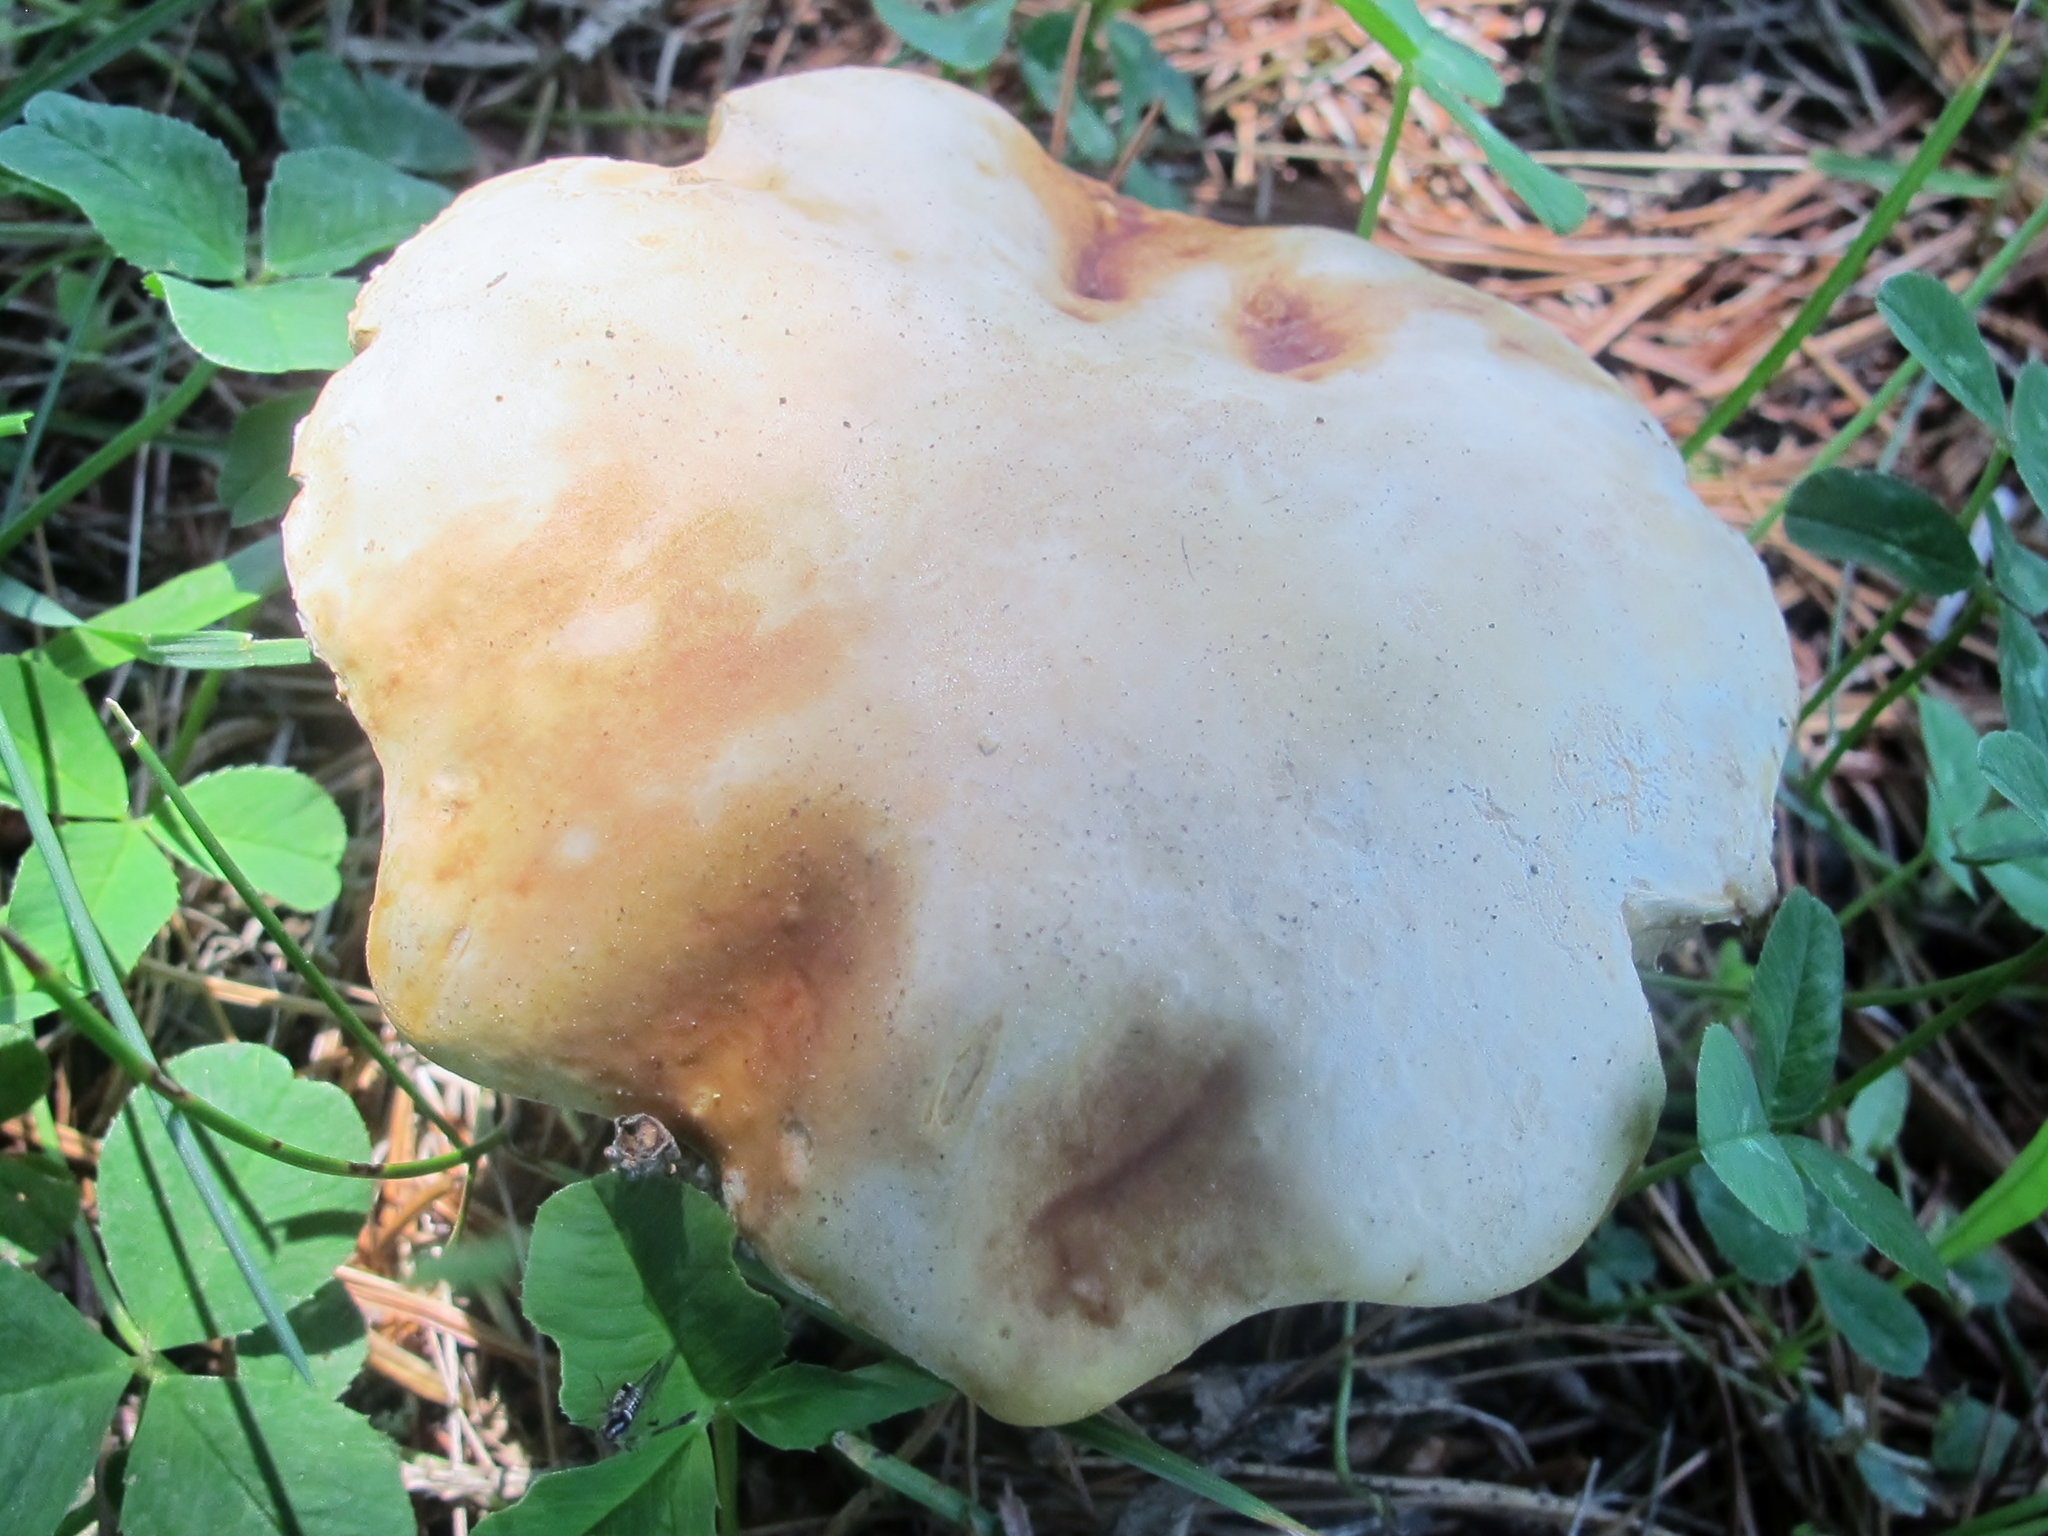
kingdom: Fungi
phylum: Basidiomycota
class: Agaricomycetes
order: Boletales
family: Boletaceae
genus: Boletus
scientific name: Boletus chippewaensis
